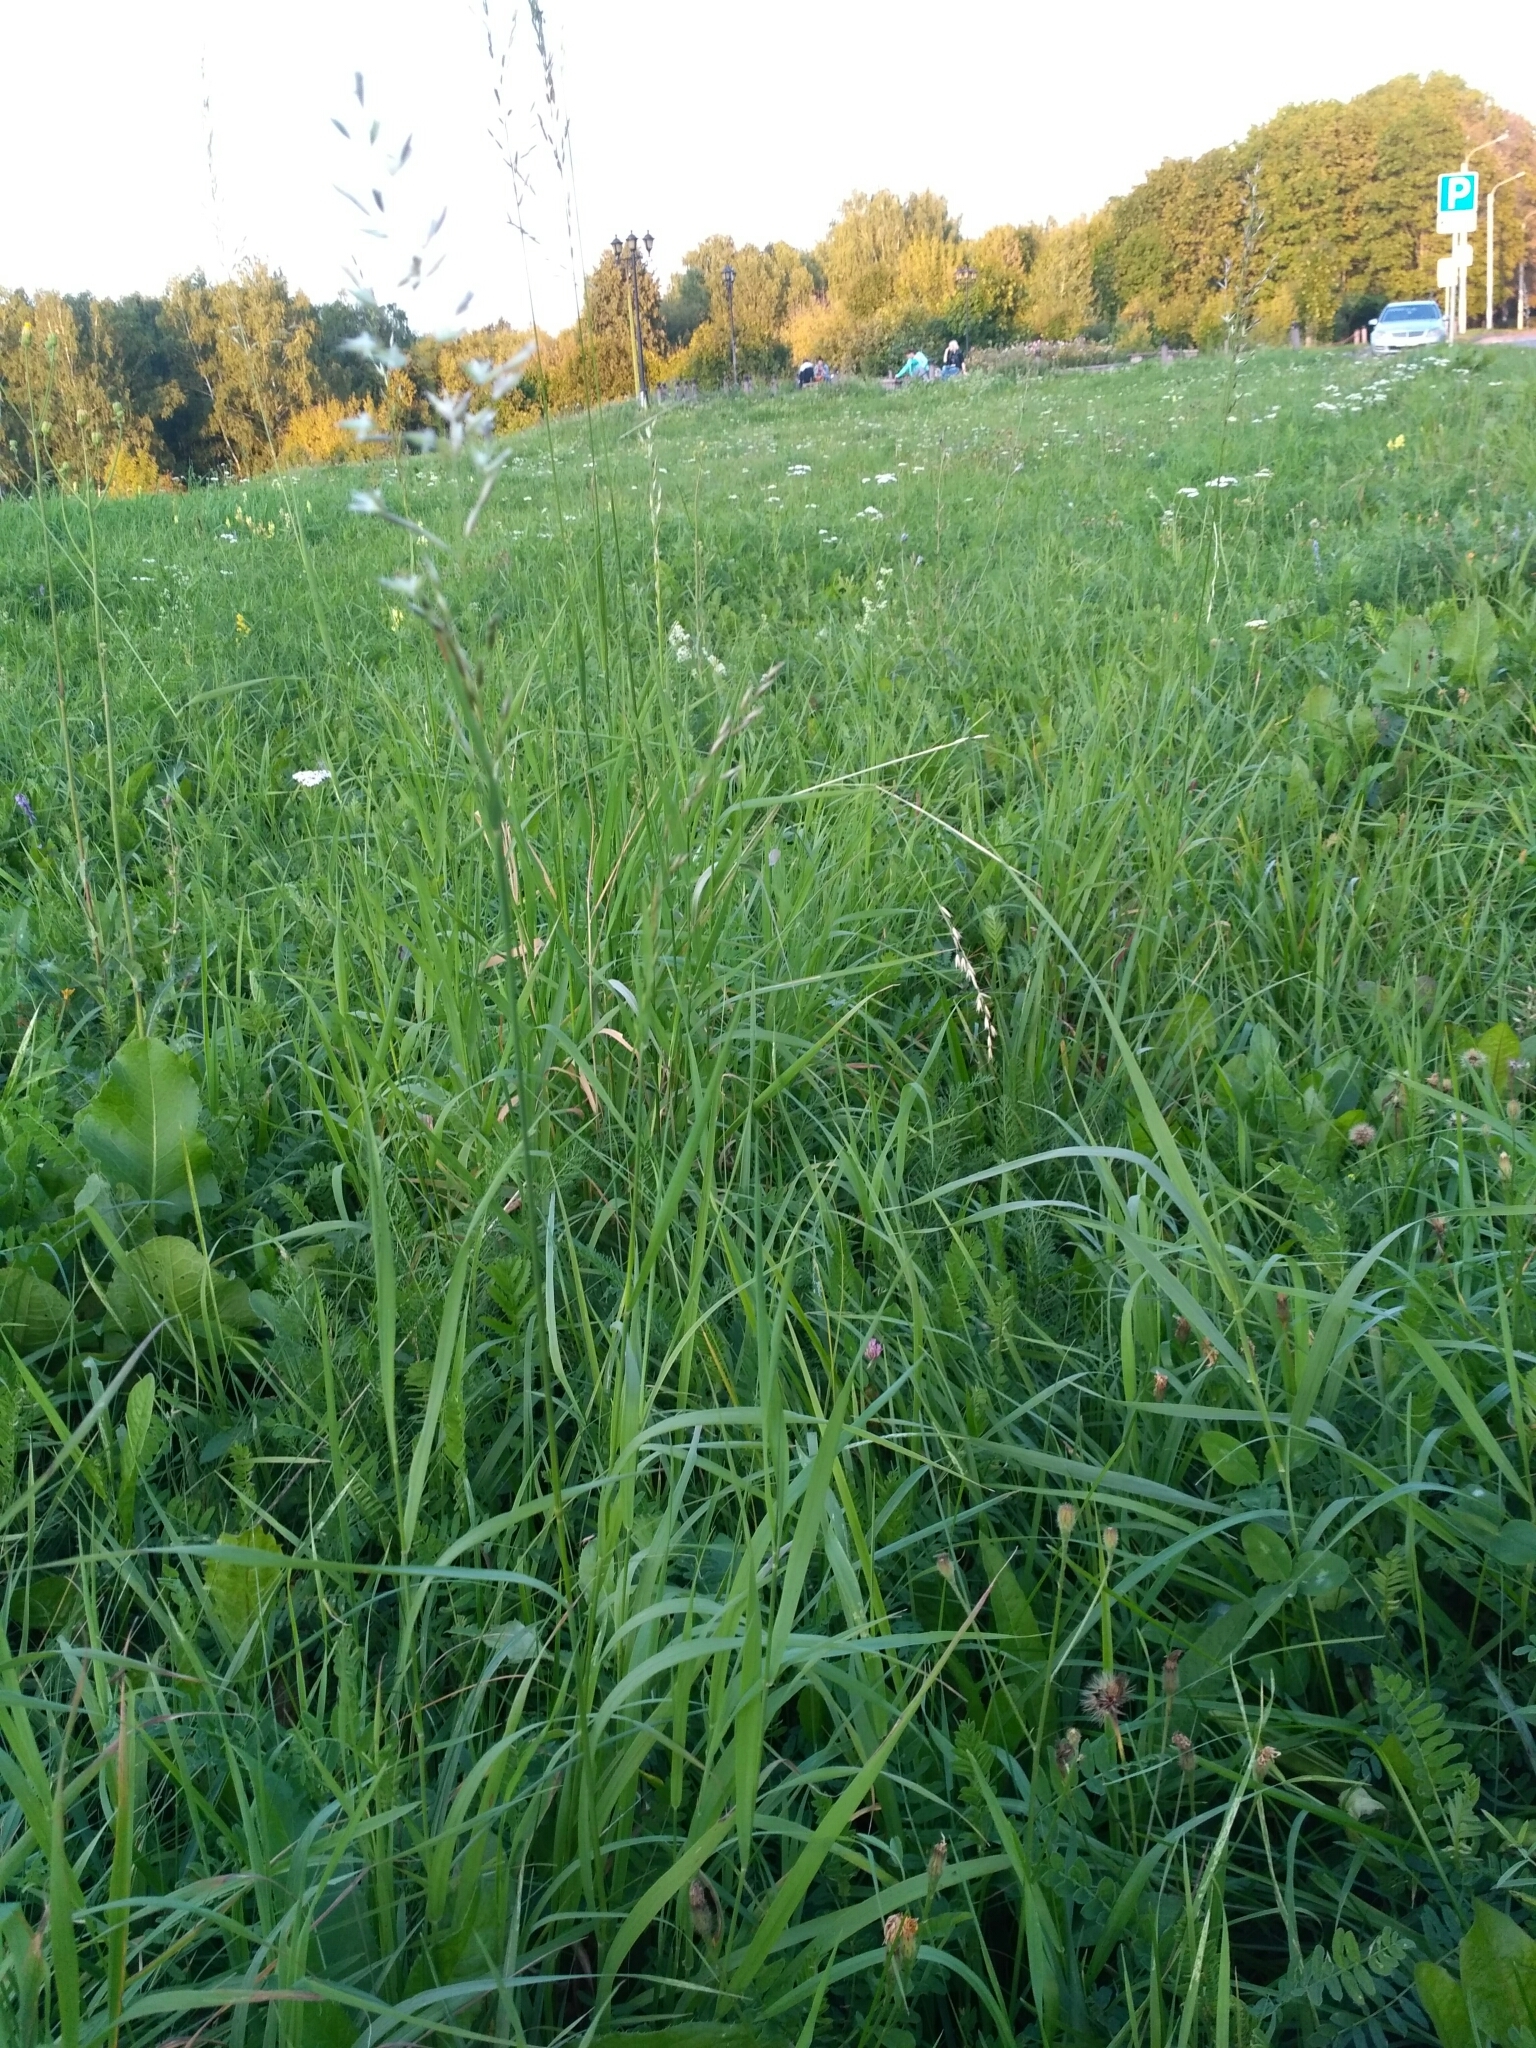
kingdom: Plantae
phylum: Tracheophyta
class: Liliopsida
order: Poales
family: Poaceae
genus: Arrhenatherum
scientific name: Arrhenatherum elatius
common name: Tall oatgrass
